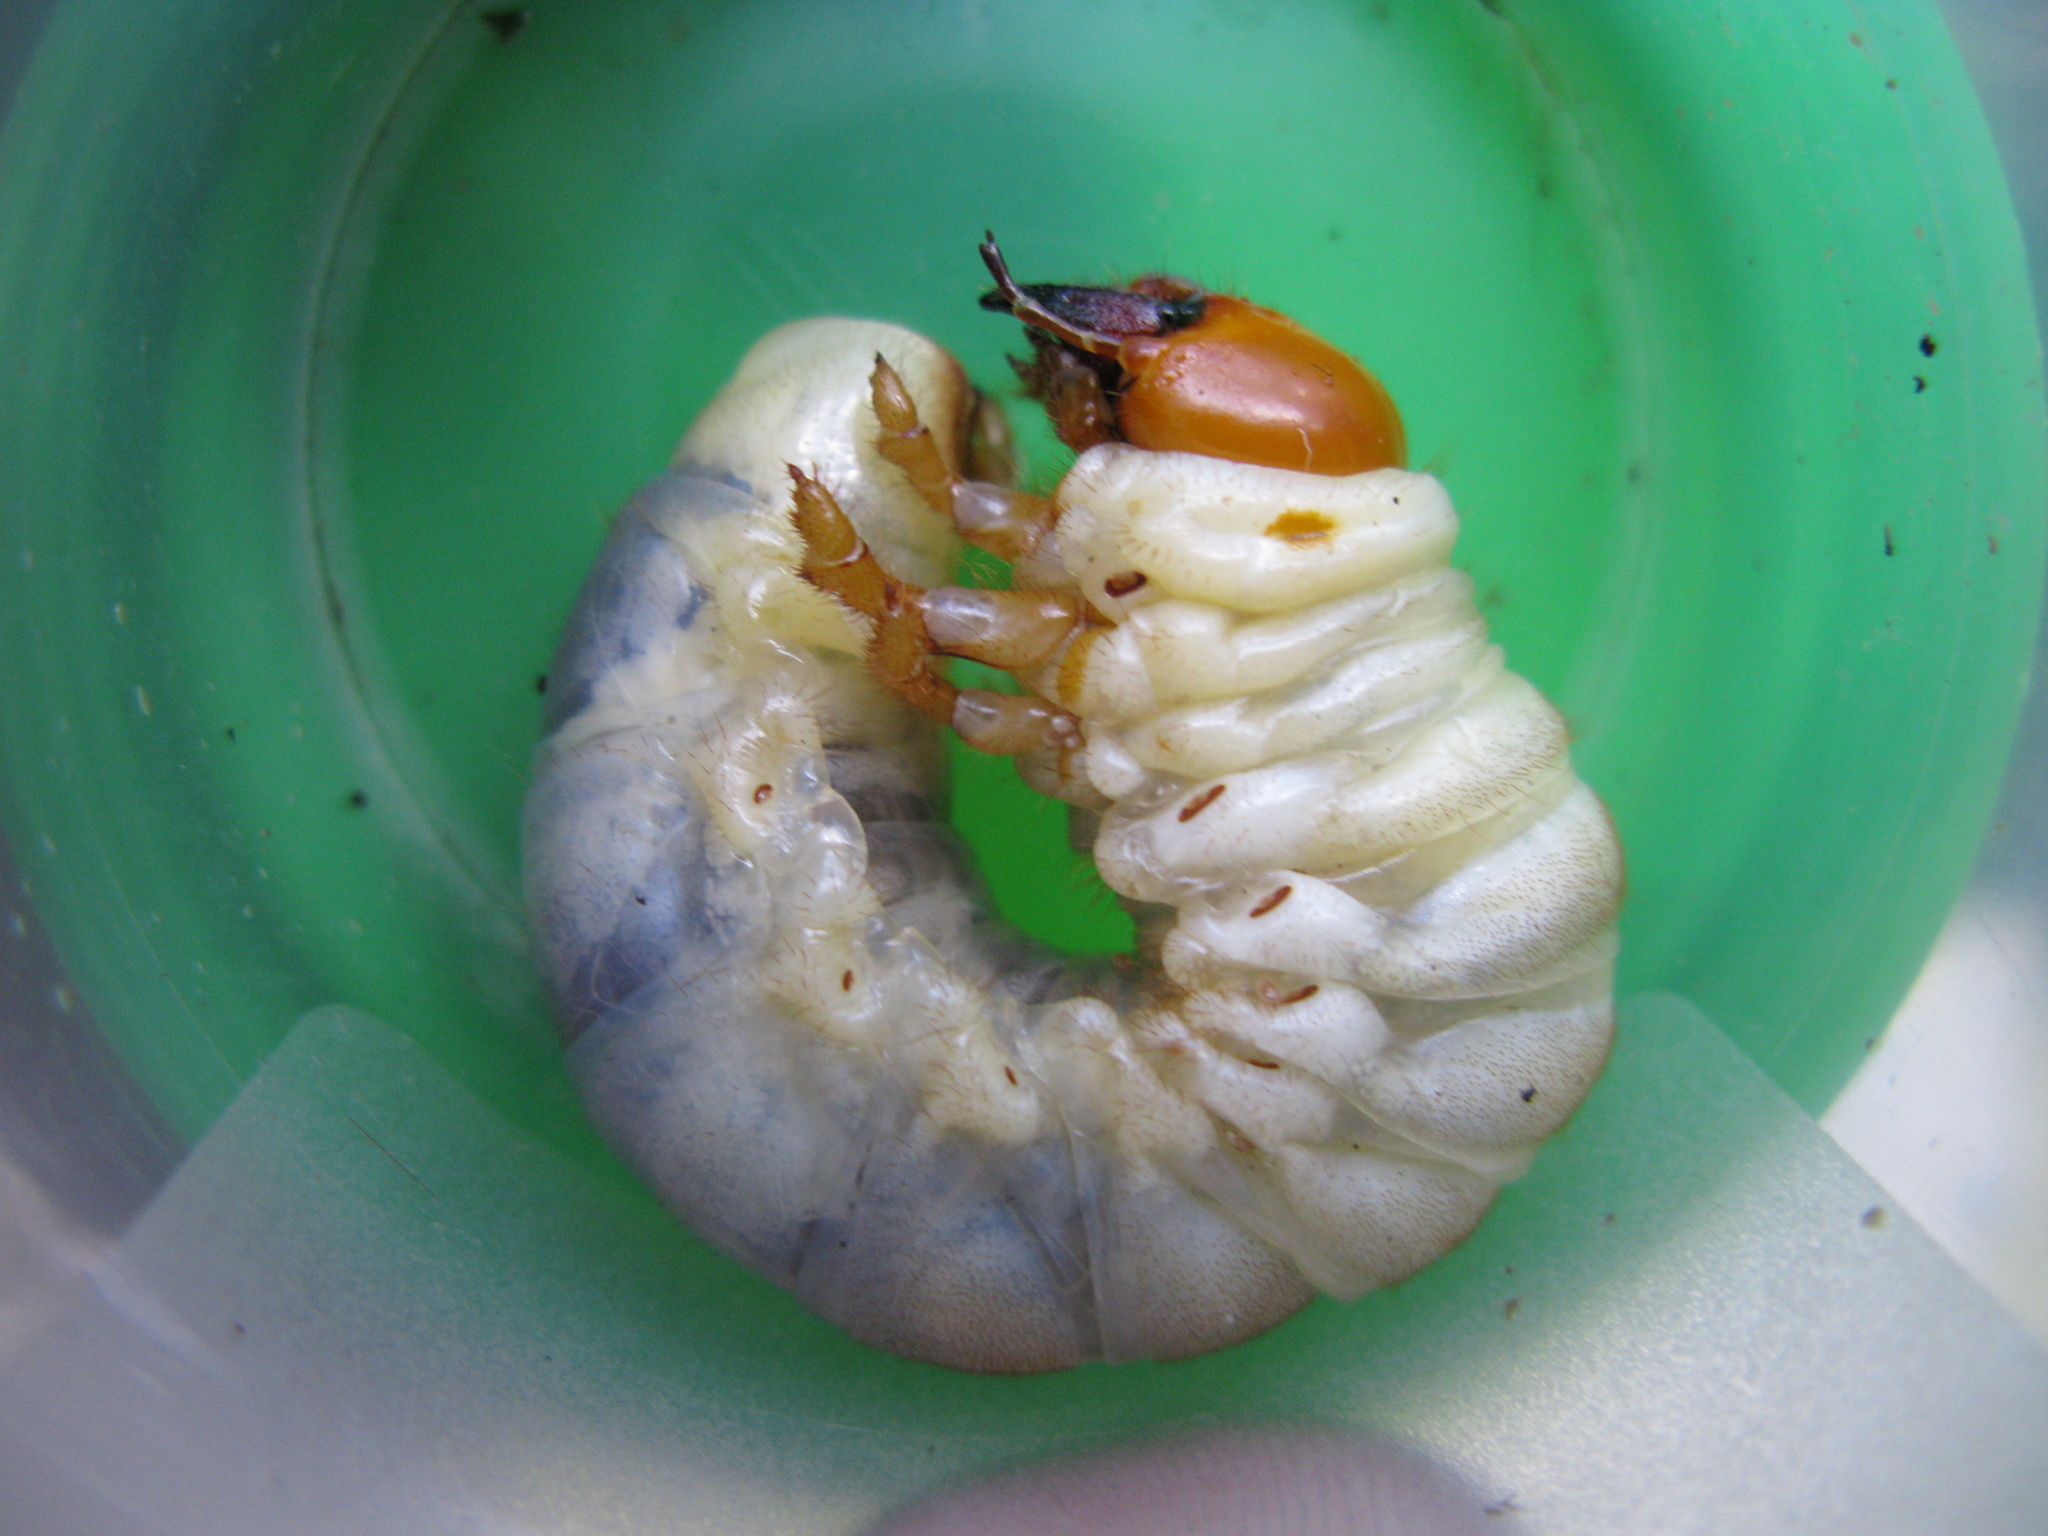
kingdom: Animalia
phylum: Arthropoda
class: Insecta
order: Coleoptera
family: Lucanidae
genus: Lucanus
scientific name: Lucanus cervus
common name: Stag beetle
